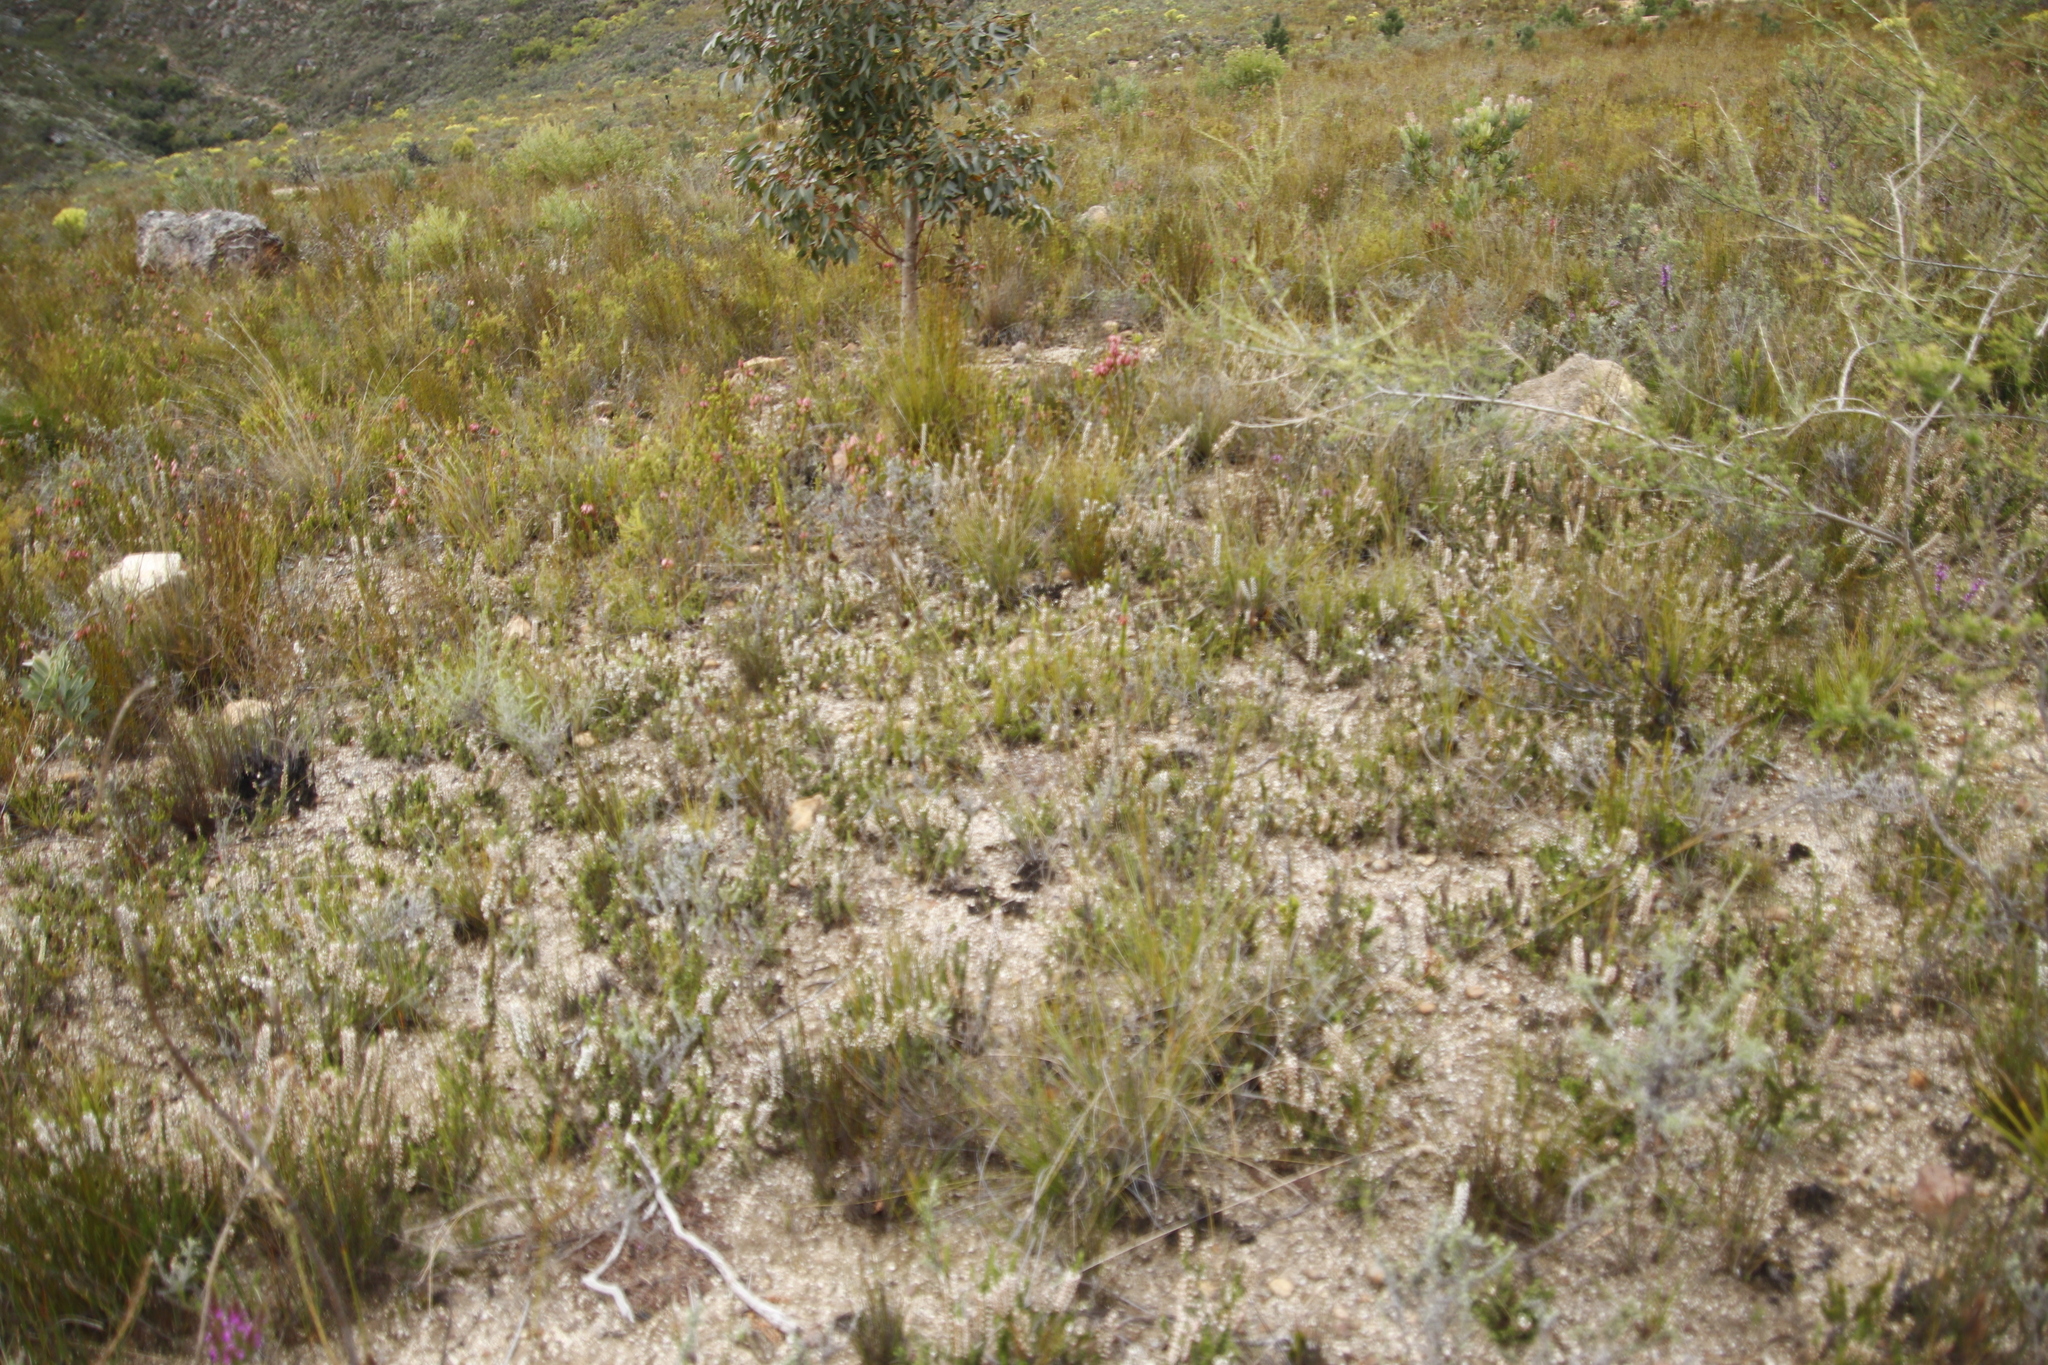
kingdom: Plantae
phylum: Tracheophyta
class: Magnoliopsida
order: Ericales
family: Ericaceae
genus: Erica
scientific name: Erica imbricata
